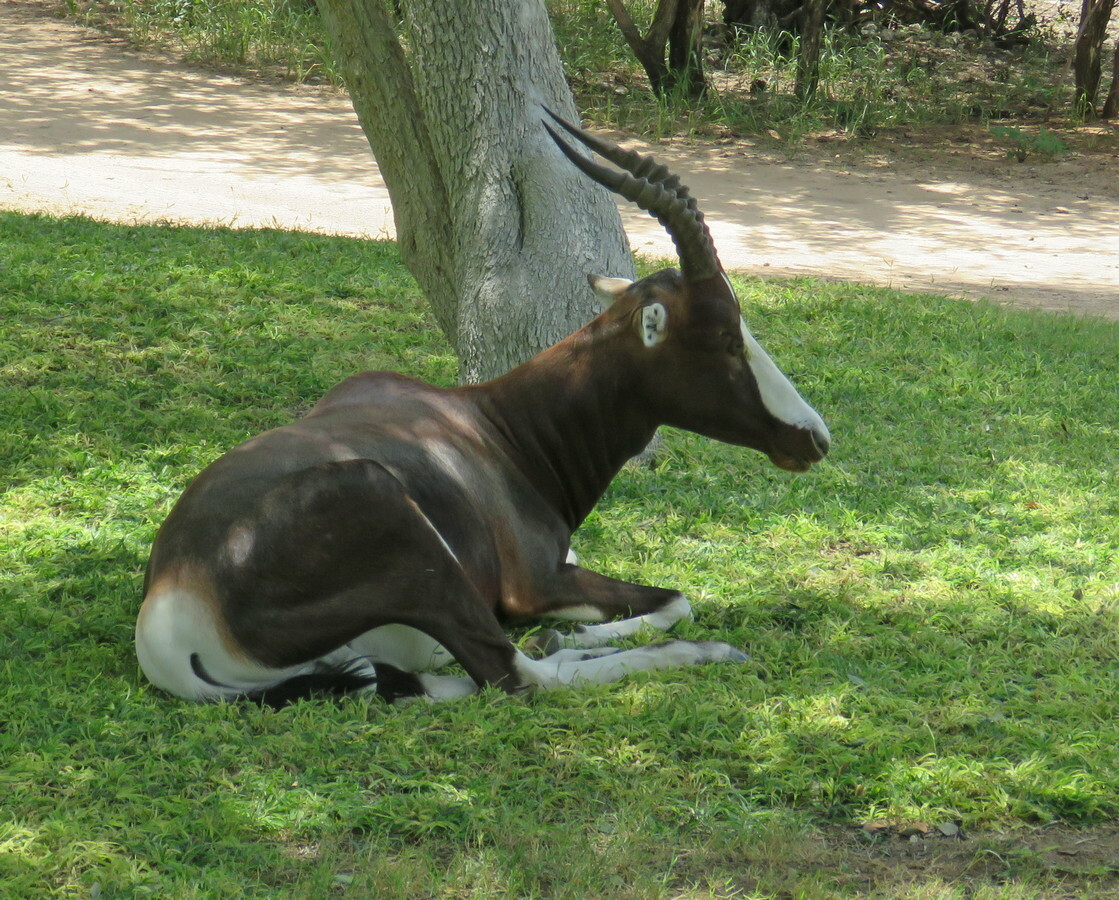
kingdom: Animalia
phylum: Chordata
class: Mammalia
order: Artiodactyla
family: Bovidae
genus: Damaliscus
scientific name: Damaliscus pygargus
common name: Bontebok
